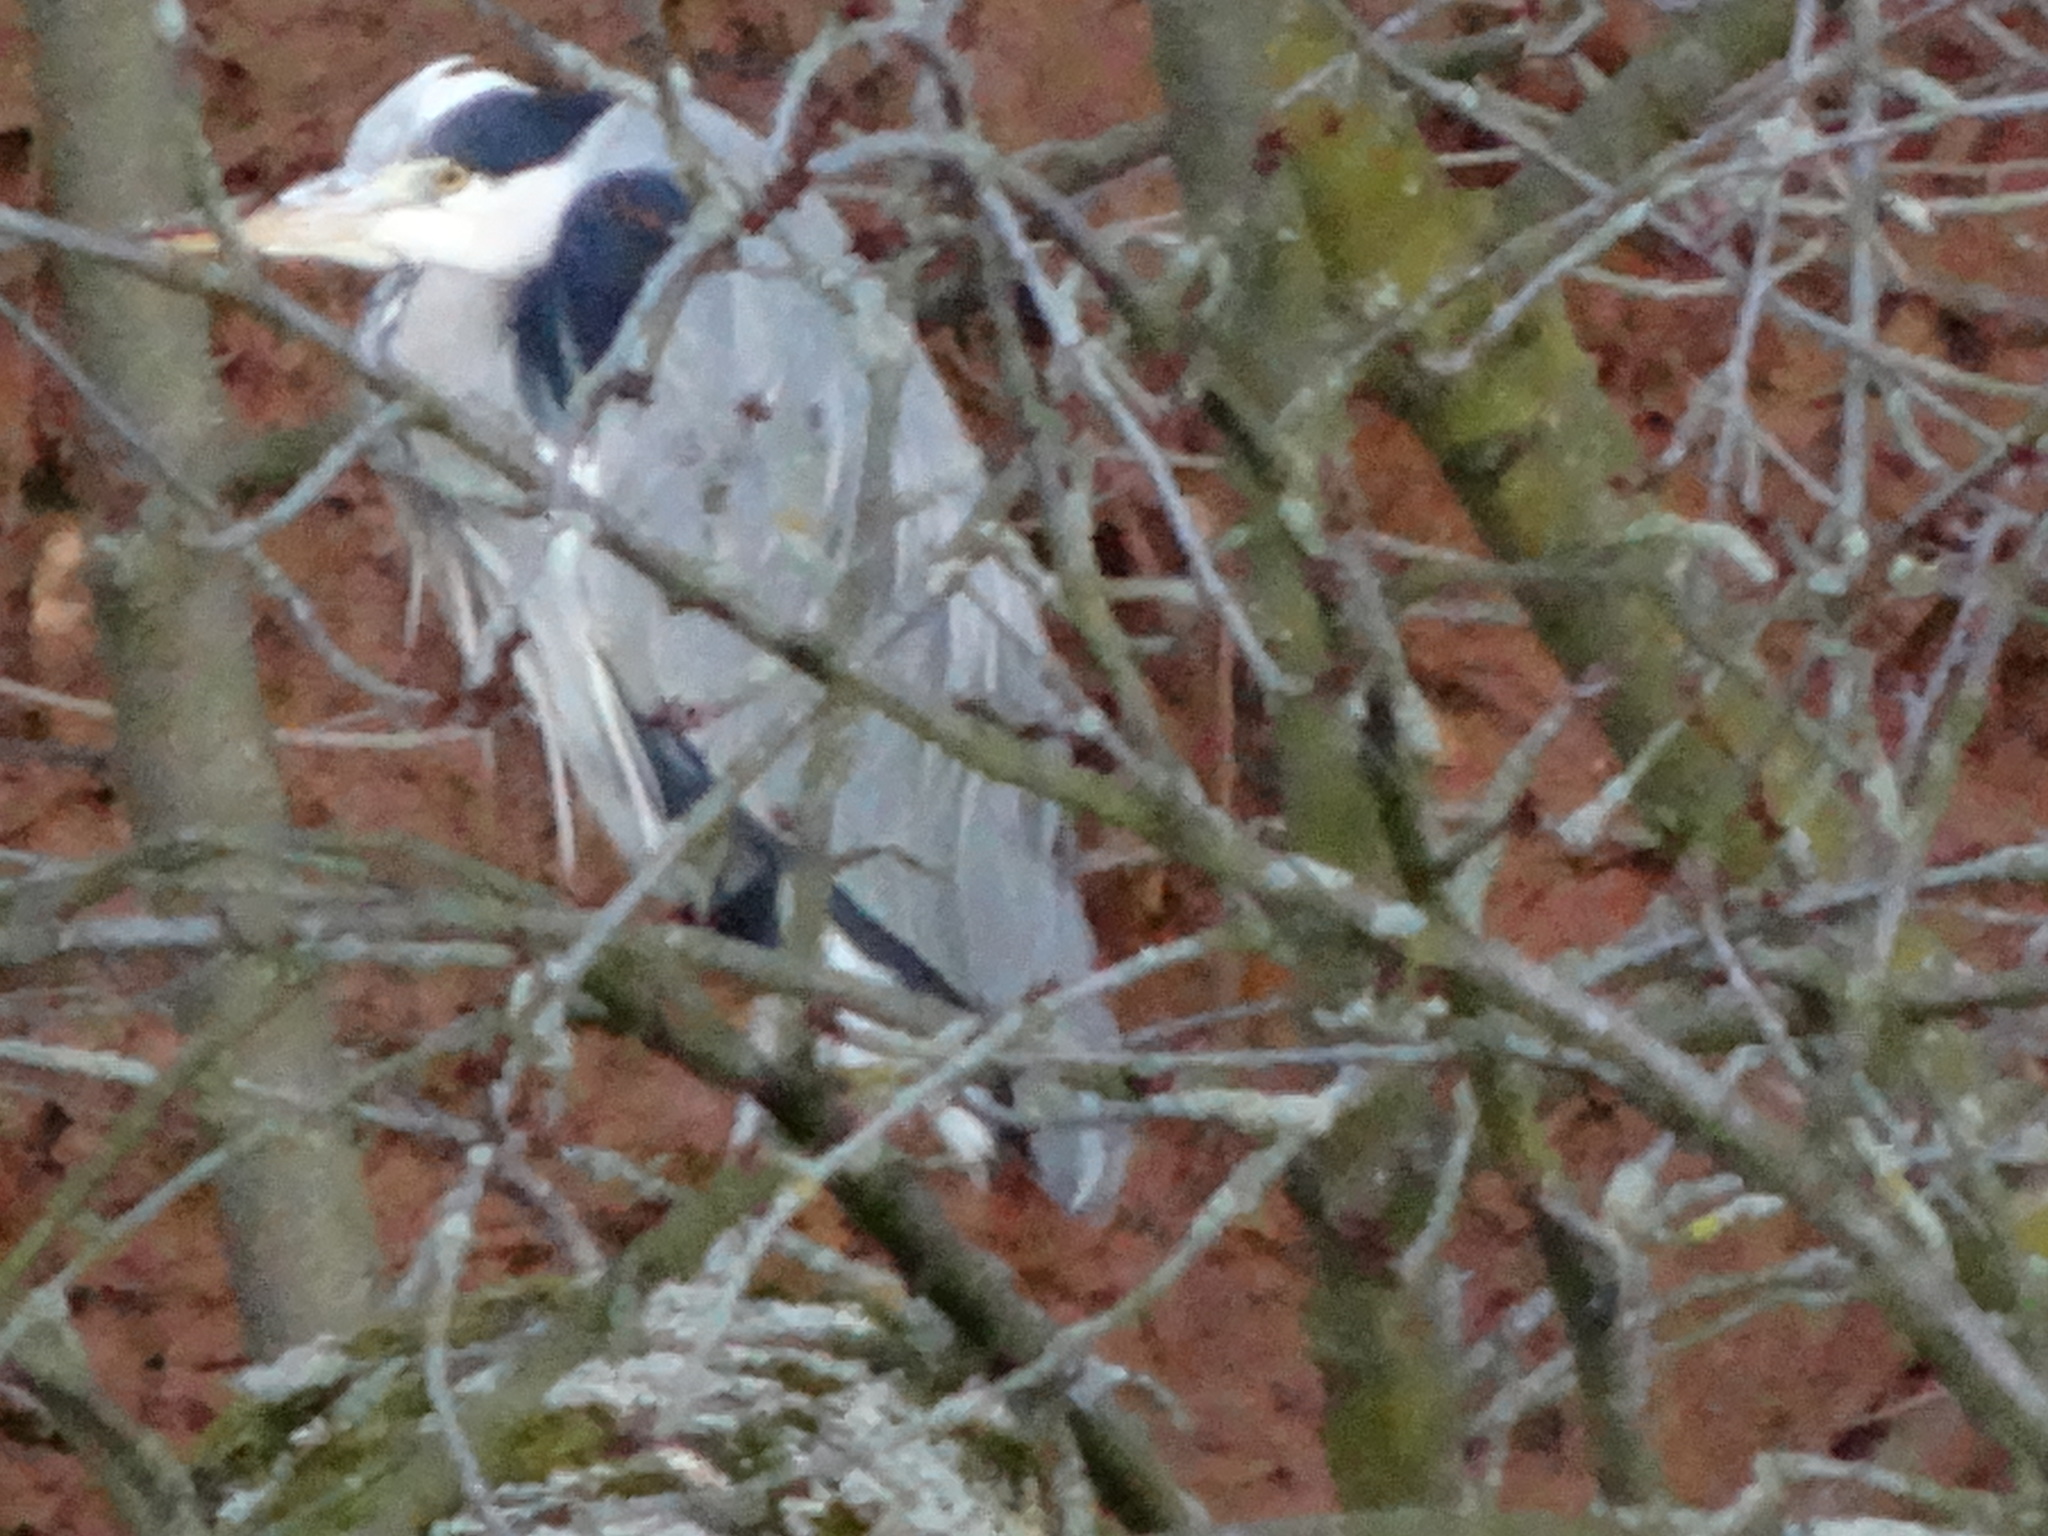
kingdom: Animalia
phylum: Chordata
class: Aves
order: Pelecaniformes
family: Ardeidae
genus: Ardea
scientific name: Ardea cinerea
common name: Grey heron
